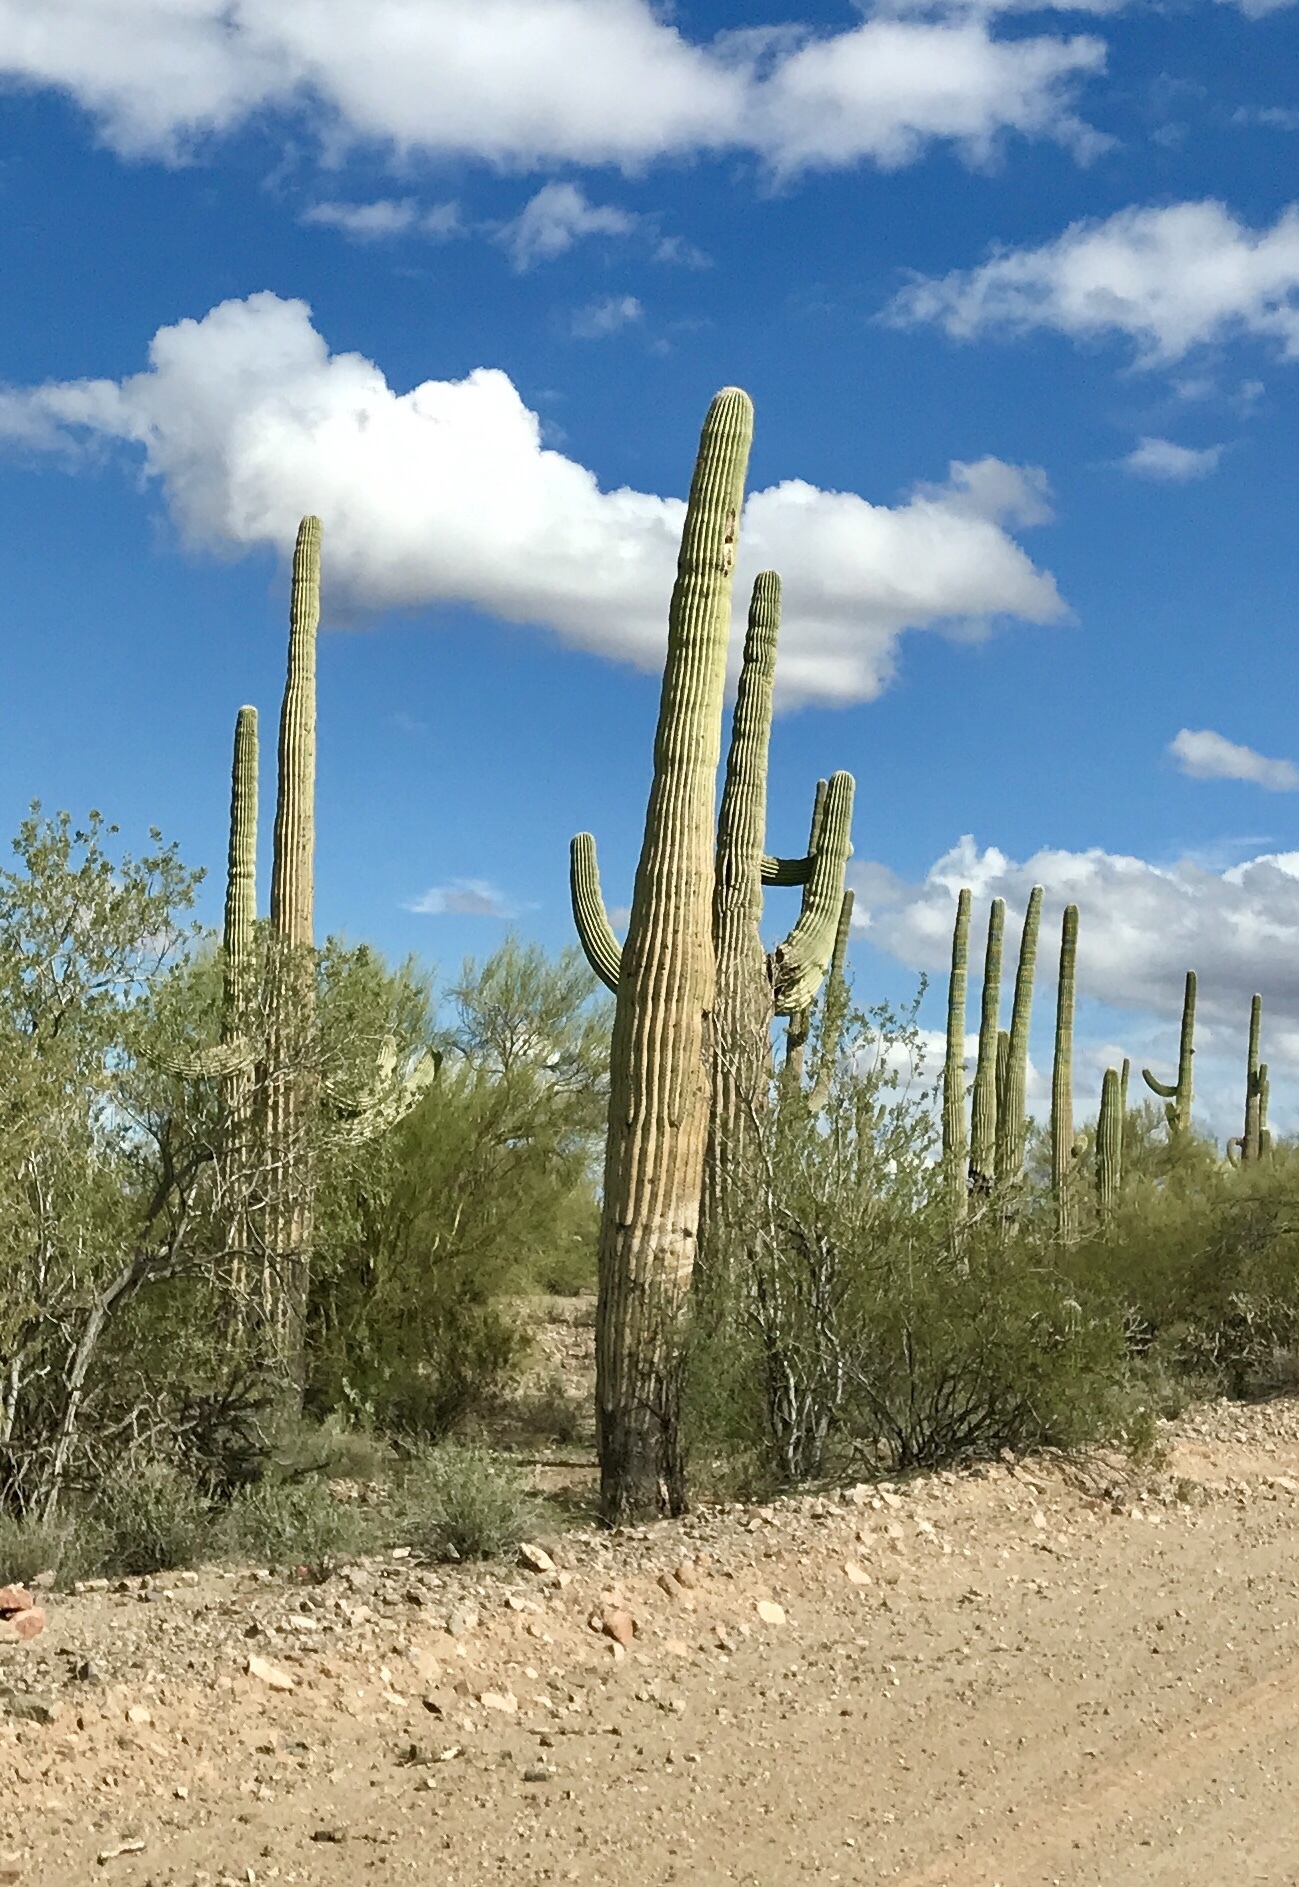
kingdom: Plantae
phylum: Tracheophyta
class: Magnoliopsida
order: Caryophyllales
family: Cactaceae
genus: Carnegiea
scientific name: Carnegiea gigantea
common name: Saguaro
